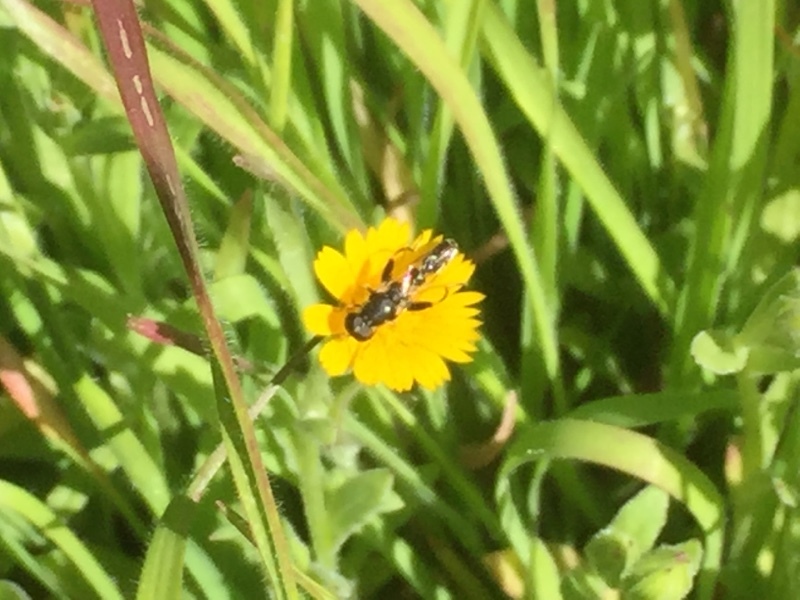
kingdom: Plantae
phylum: Tracheophyta
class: Magnoliopsida
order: Asterales
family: Asteraceae
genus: Calendula
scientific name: Calendula arvensis
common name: Field marigold
